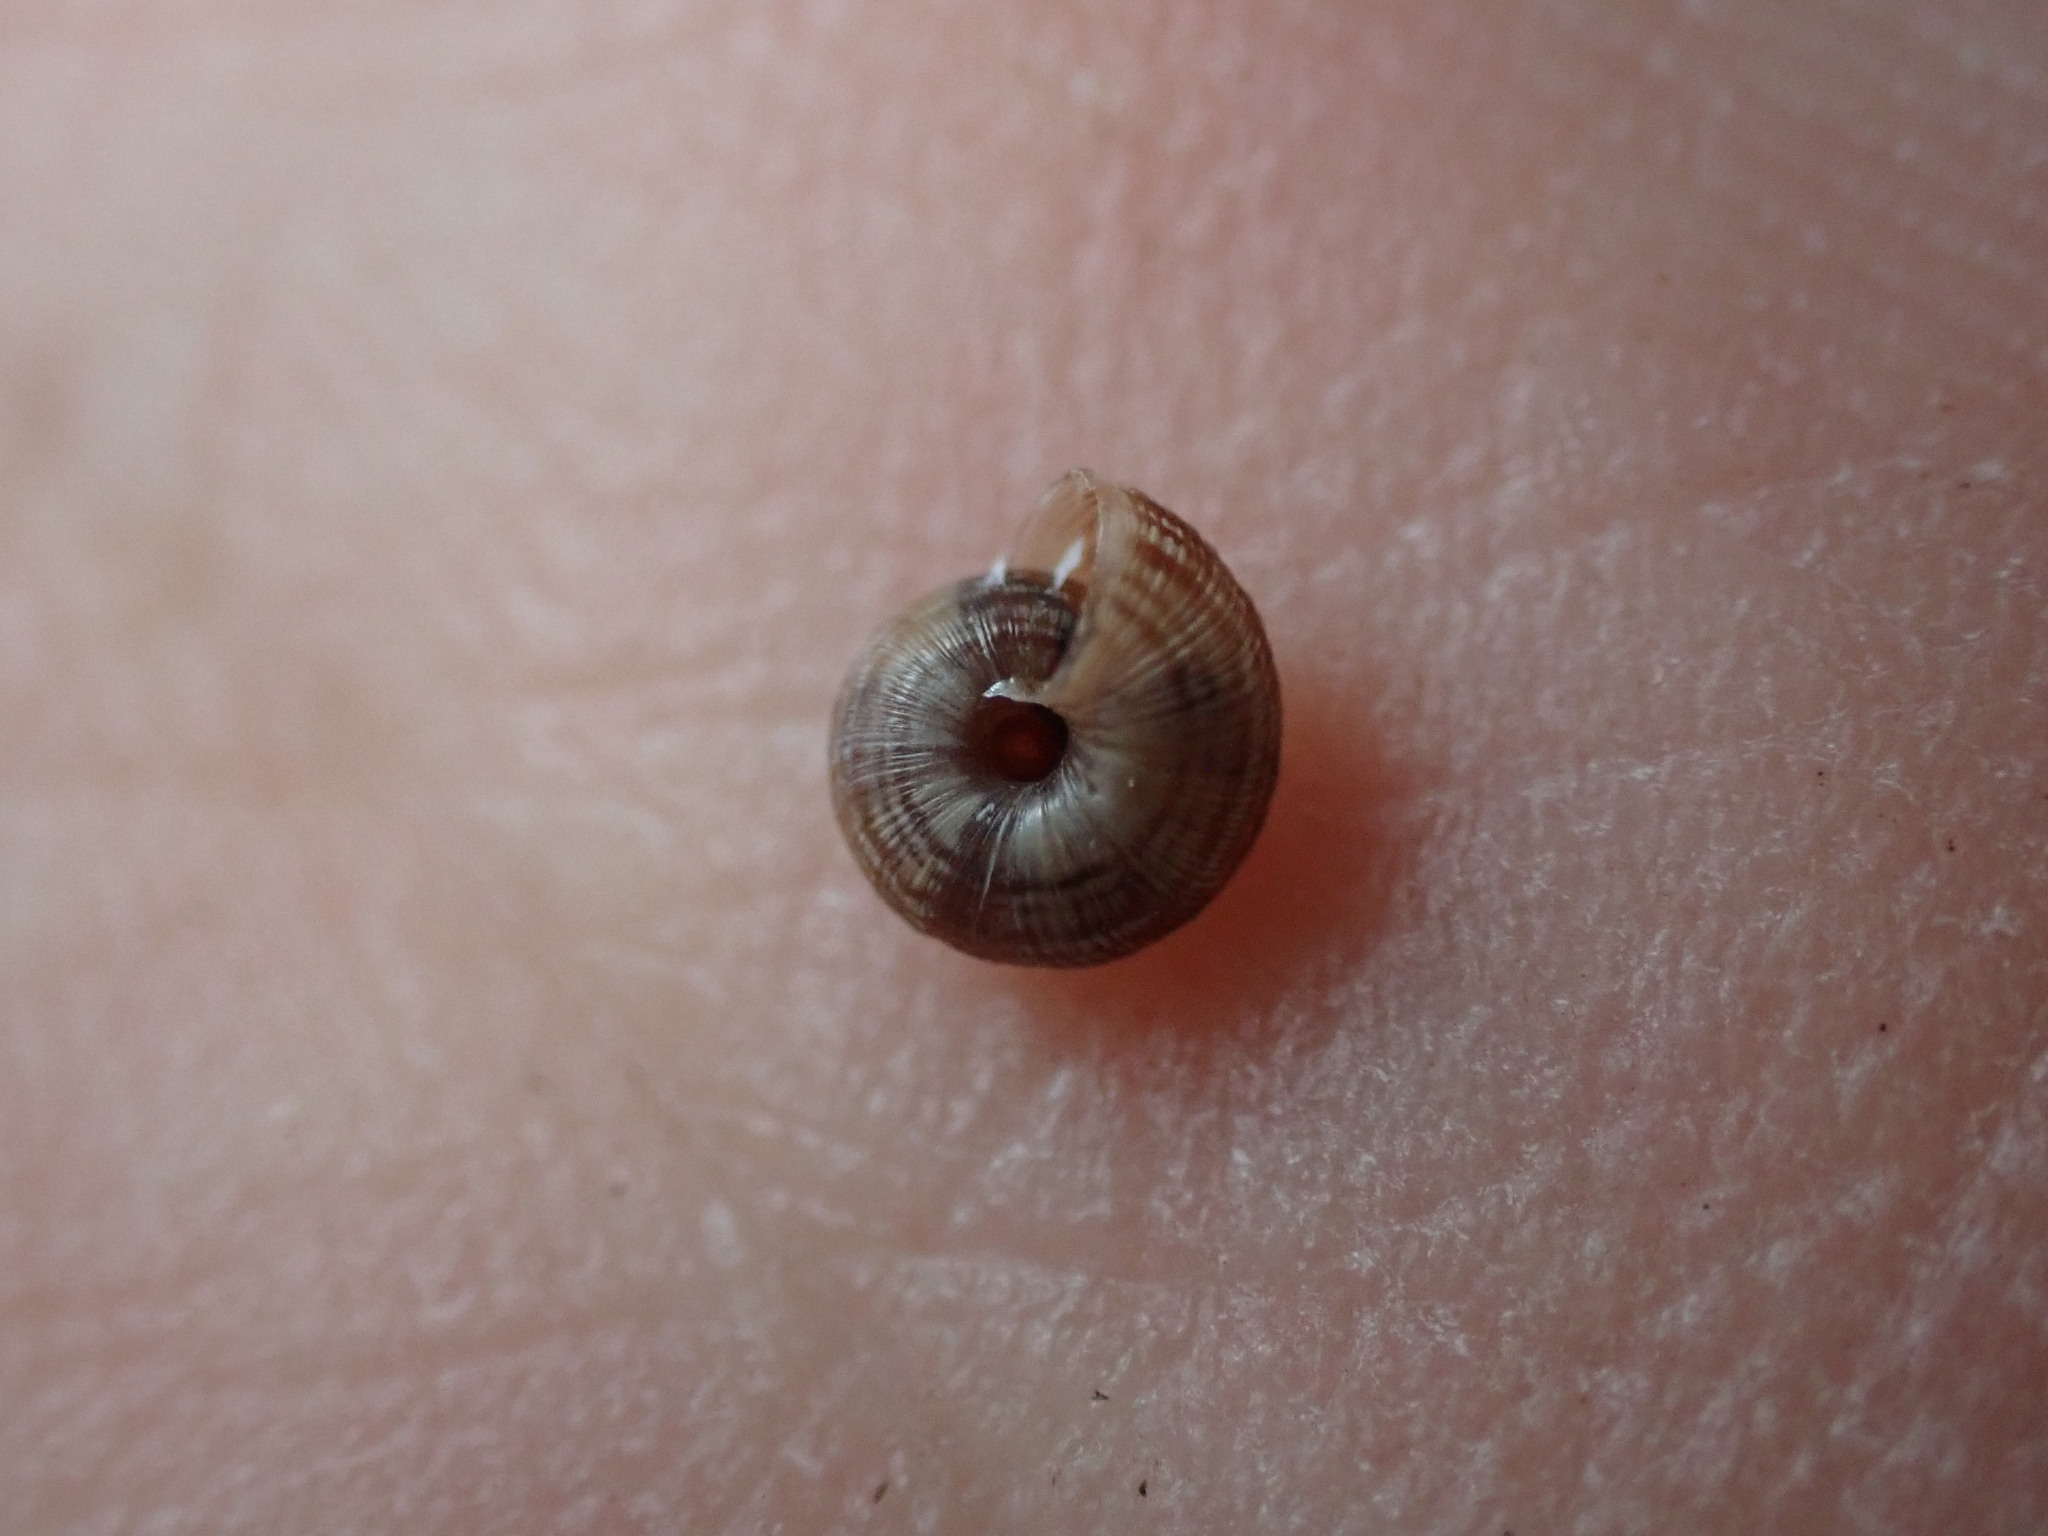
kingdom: Animalia
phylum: Mollusca
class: Gastropoda
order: Stylommatophora
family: Geomitridae
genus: Candidula
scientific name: Candidula rugosiuscula
